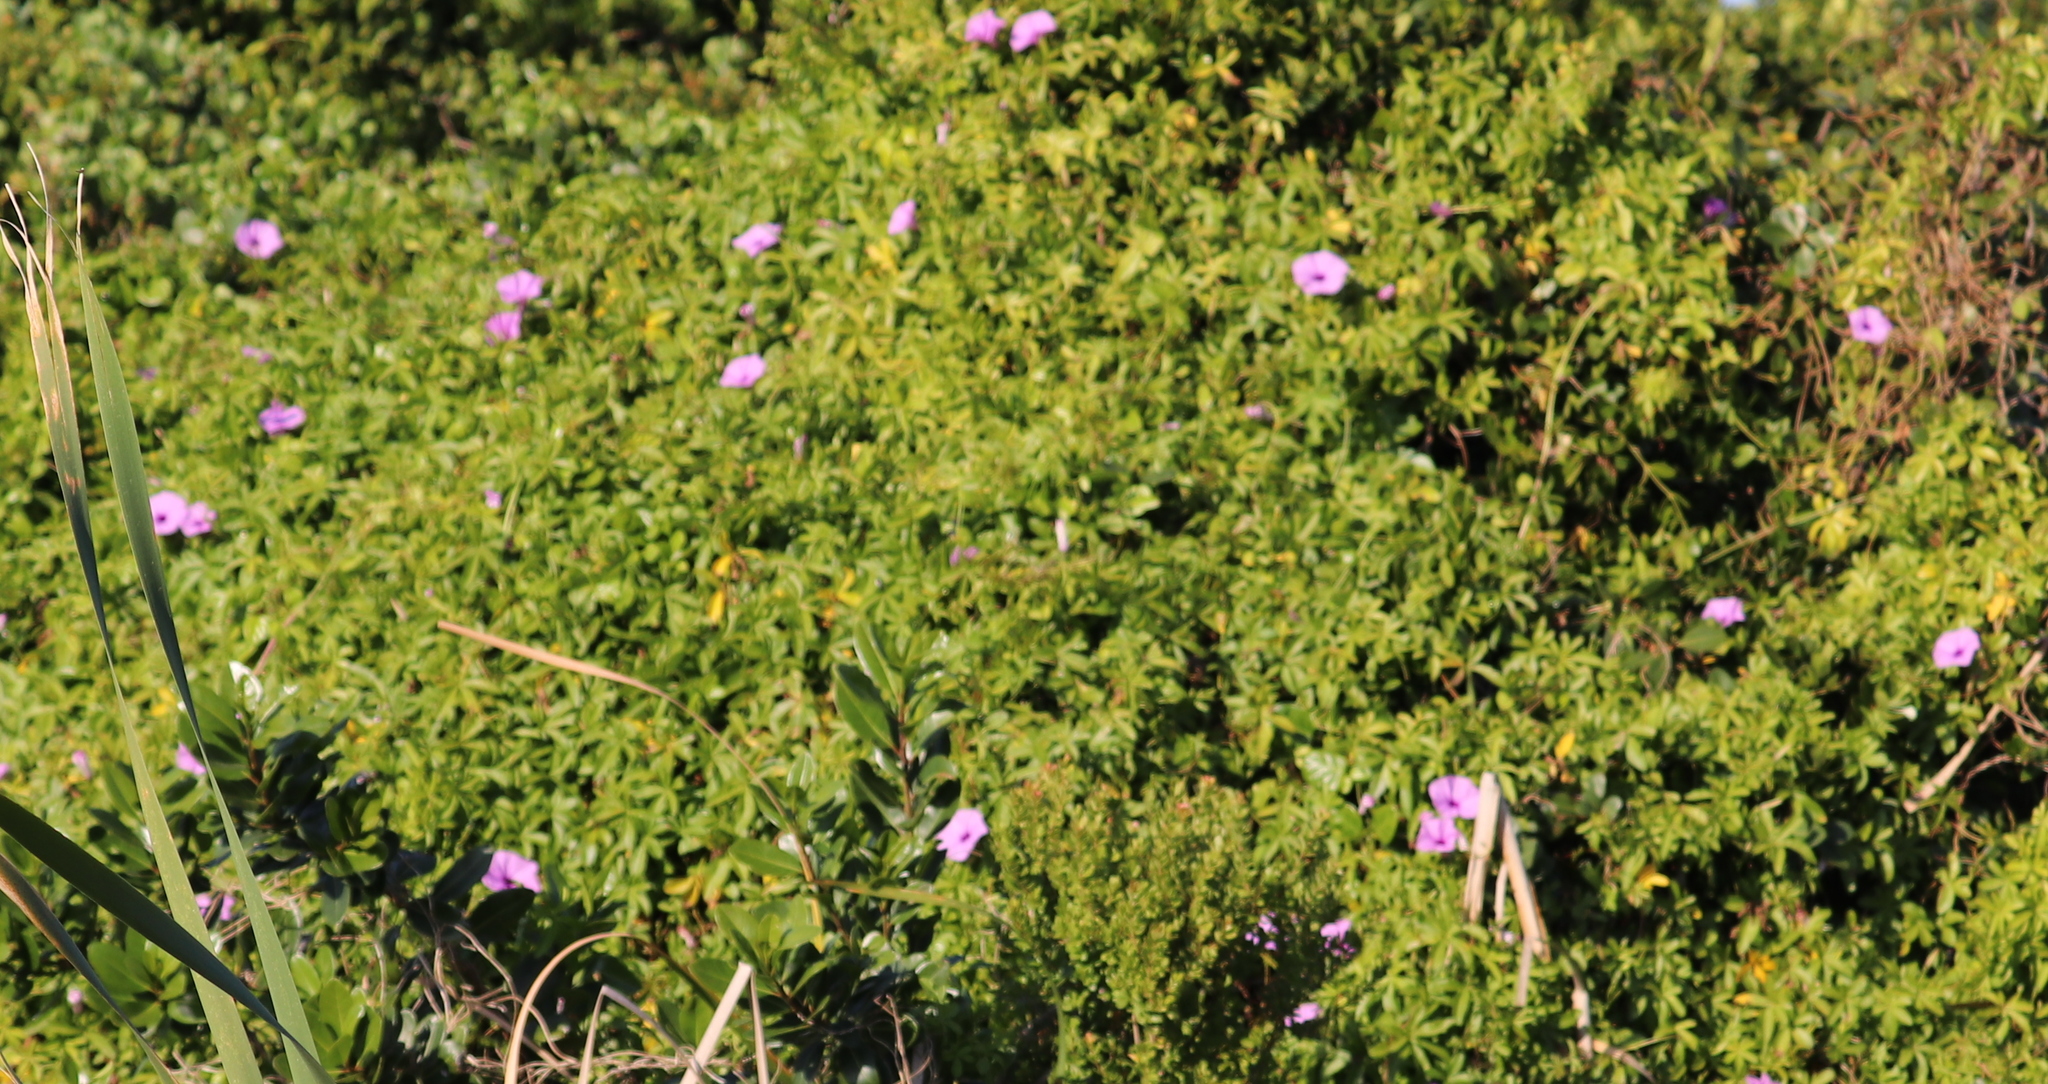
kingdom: Plantae
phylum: Tracheophyta
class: Magnoliopsida
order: Solanales
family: Convolvulaceae
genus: Ipomoea
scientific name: Ipomoea cairica
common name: Mile a minute vine
